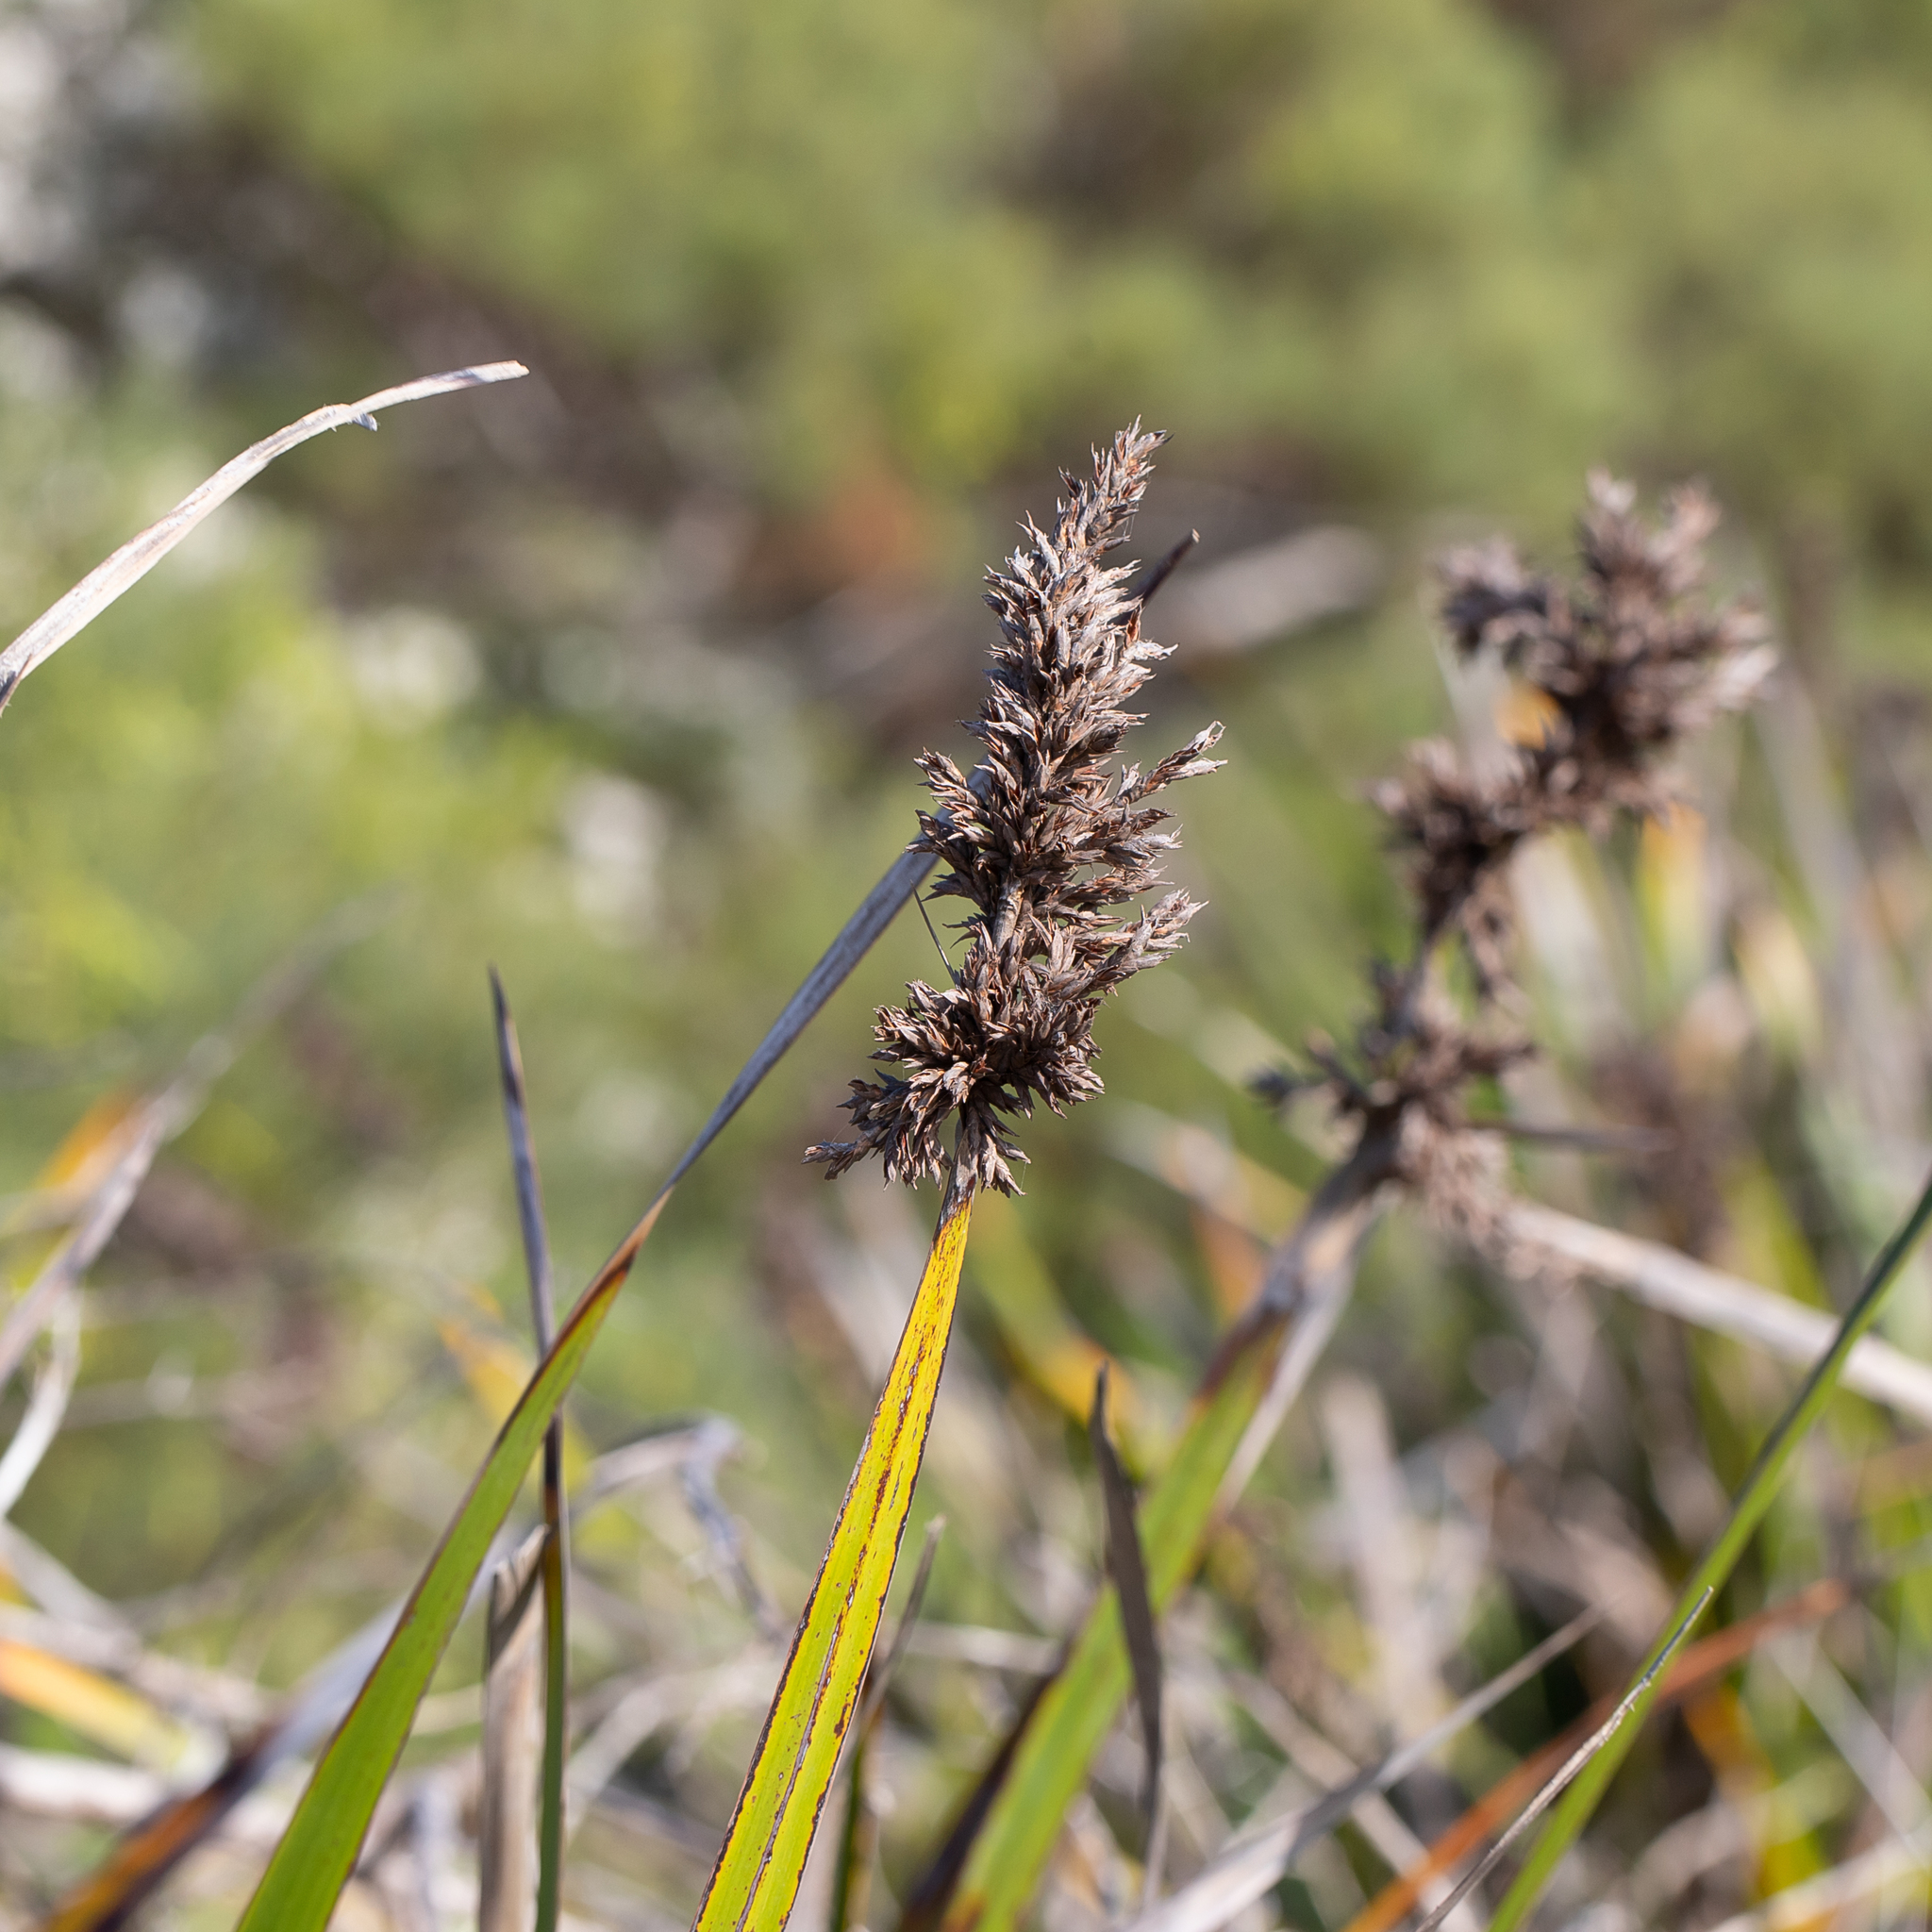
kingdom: Plantae
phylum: Tracheophyta
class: Liliopsida
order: Poales
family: Cyperaceae
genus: Lepidosperma
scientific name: Lepidosperma gladiatum
